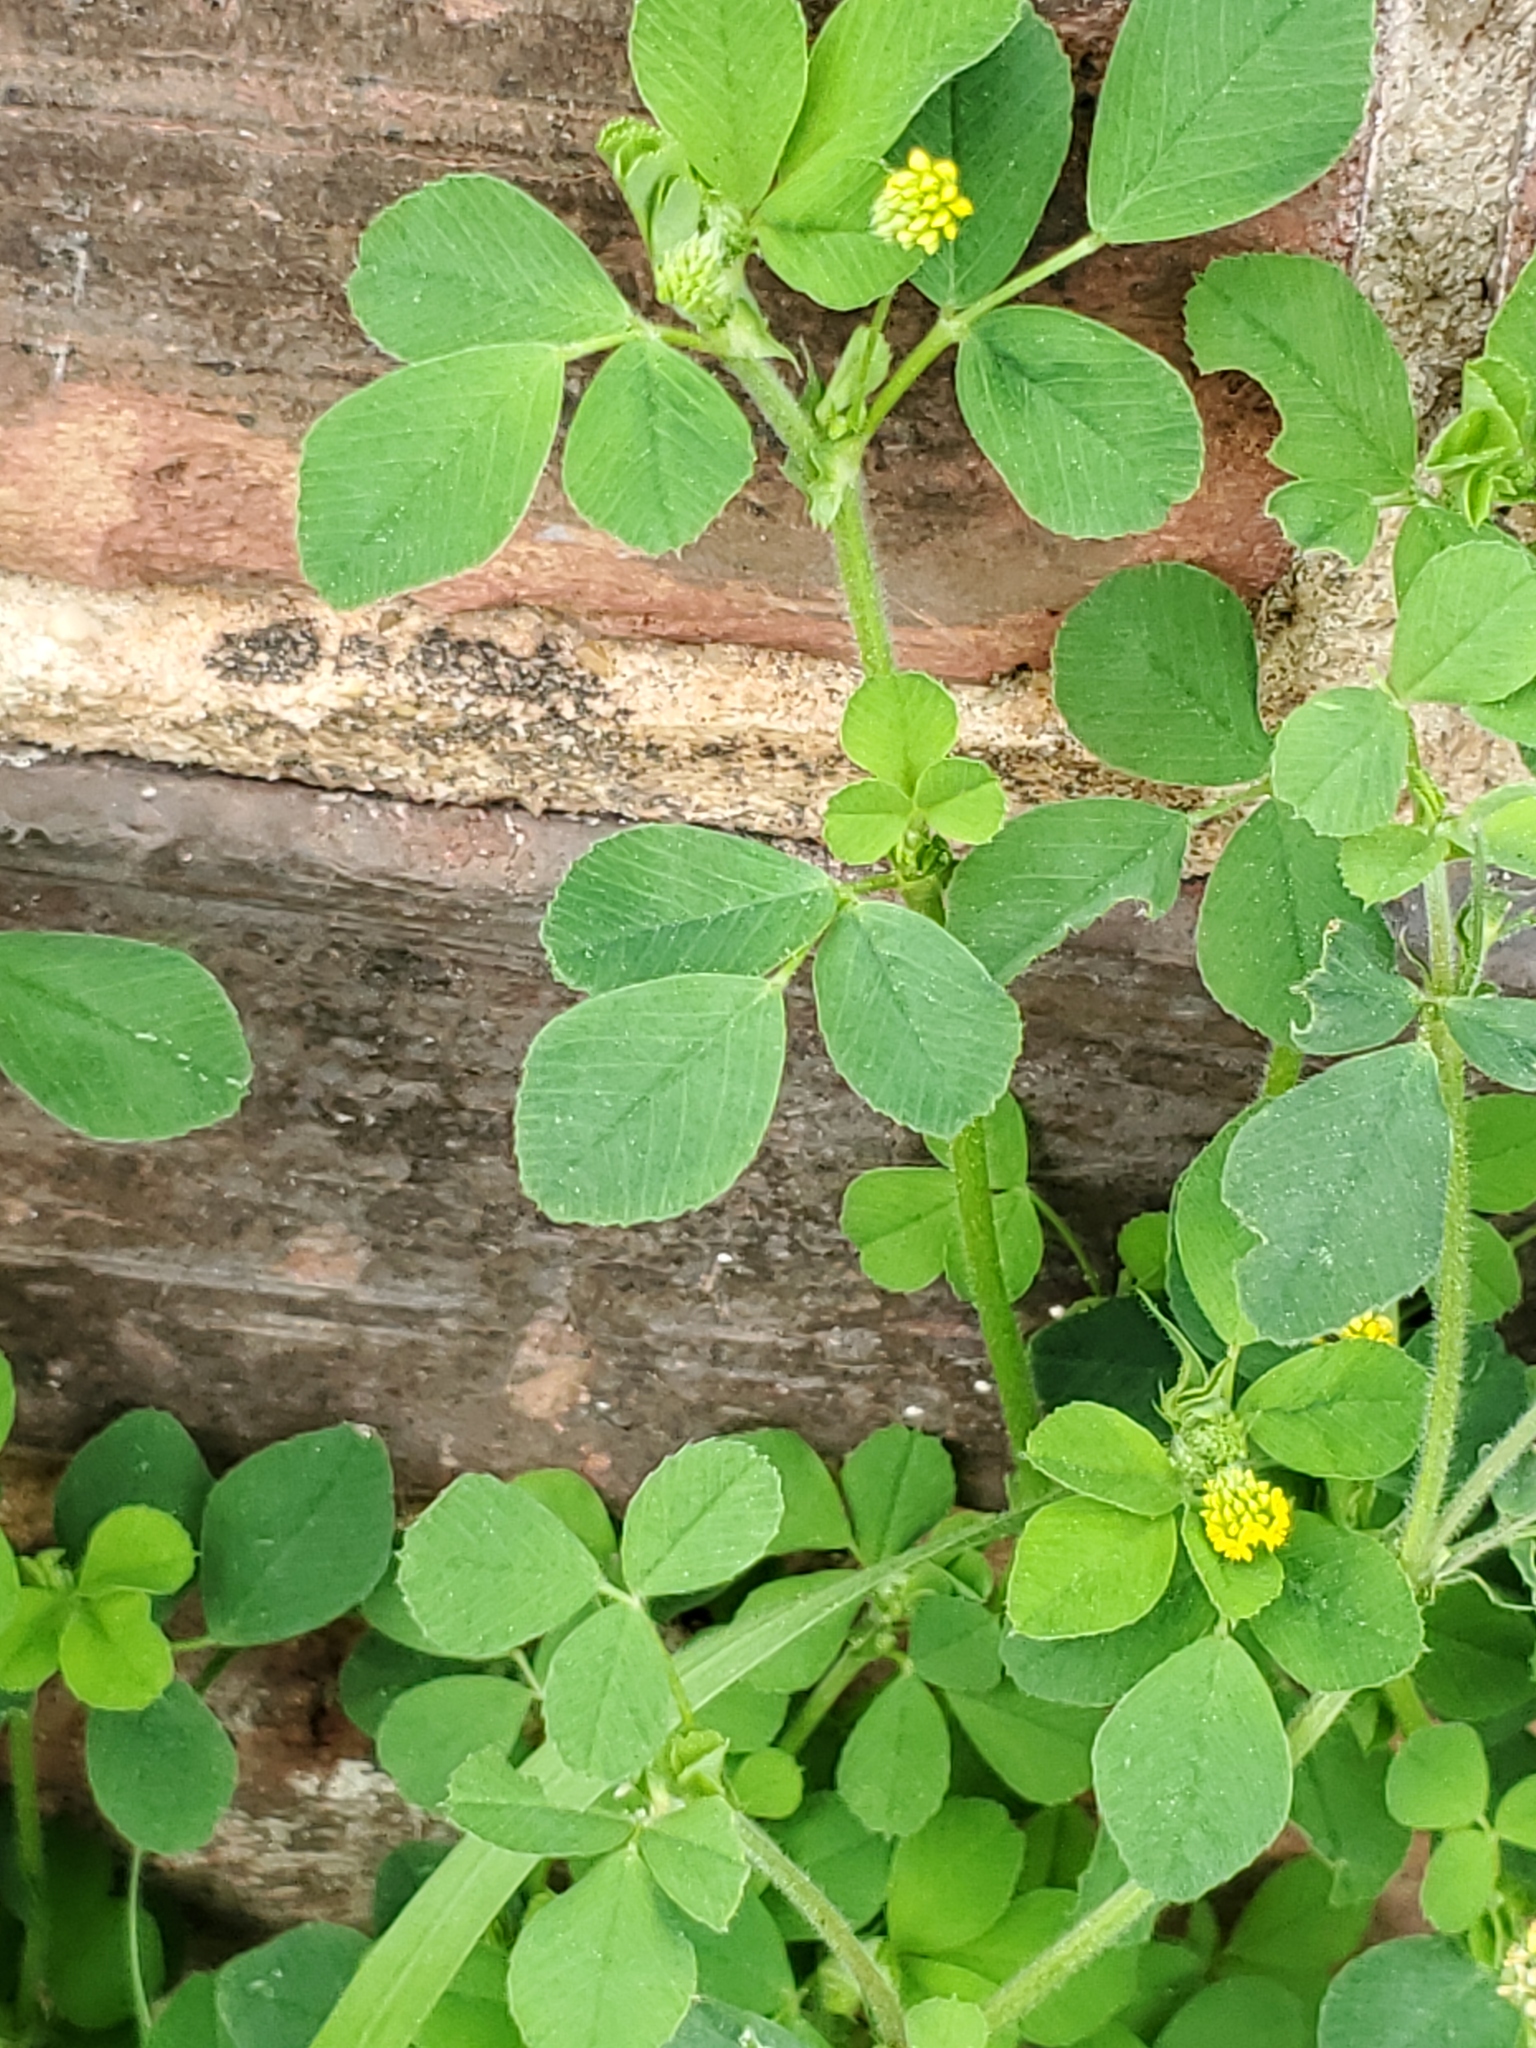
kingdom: Plantae
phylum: Tracheophyta
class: Magnoliopsida
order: Fabales
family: Fabaceae
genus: Medicago
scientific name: Medicago lupulina
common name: Black medick
